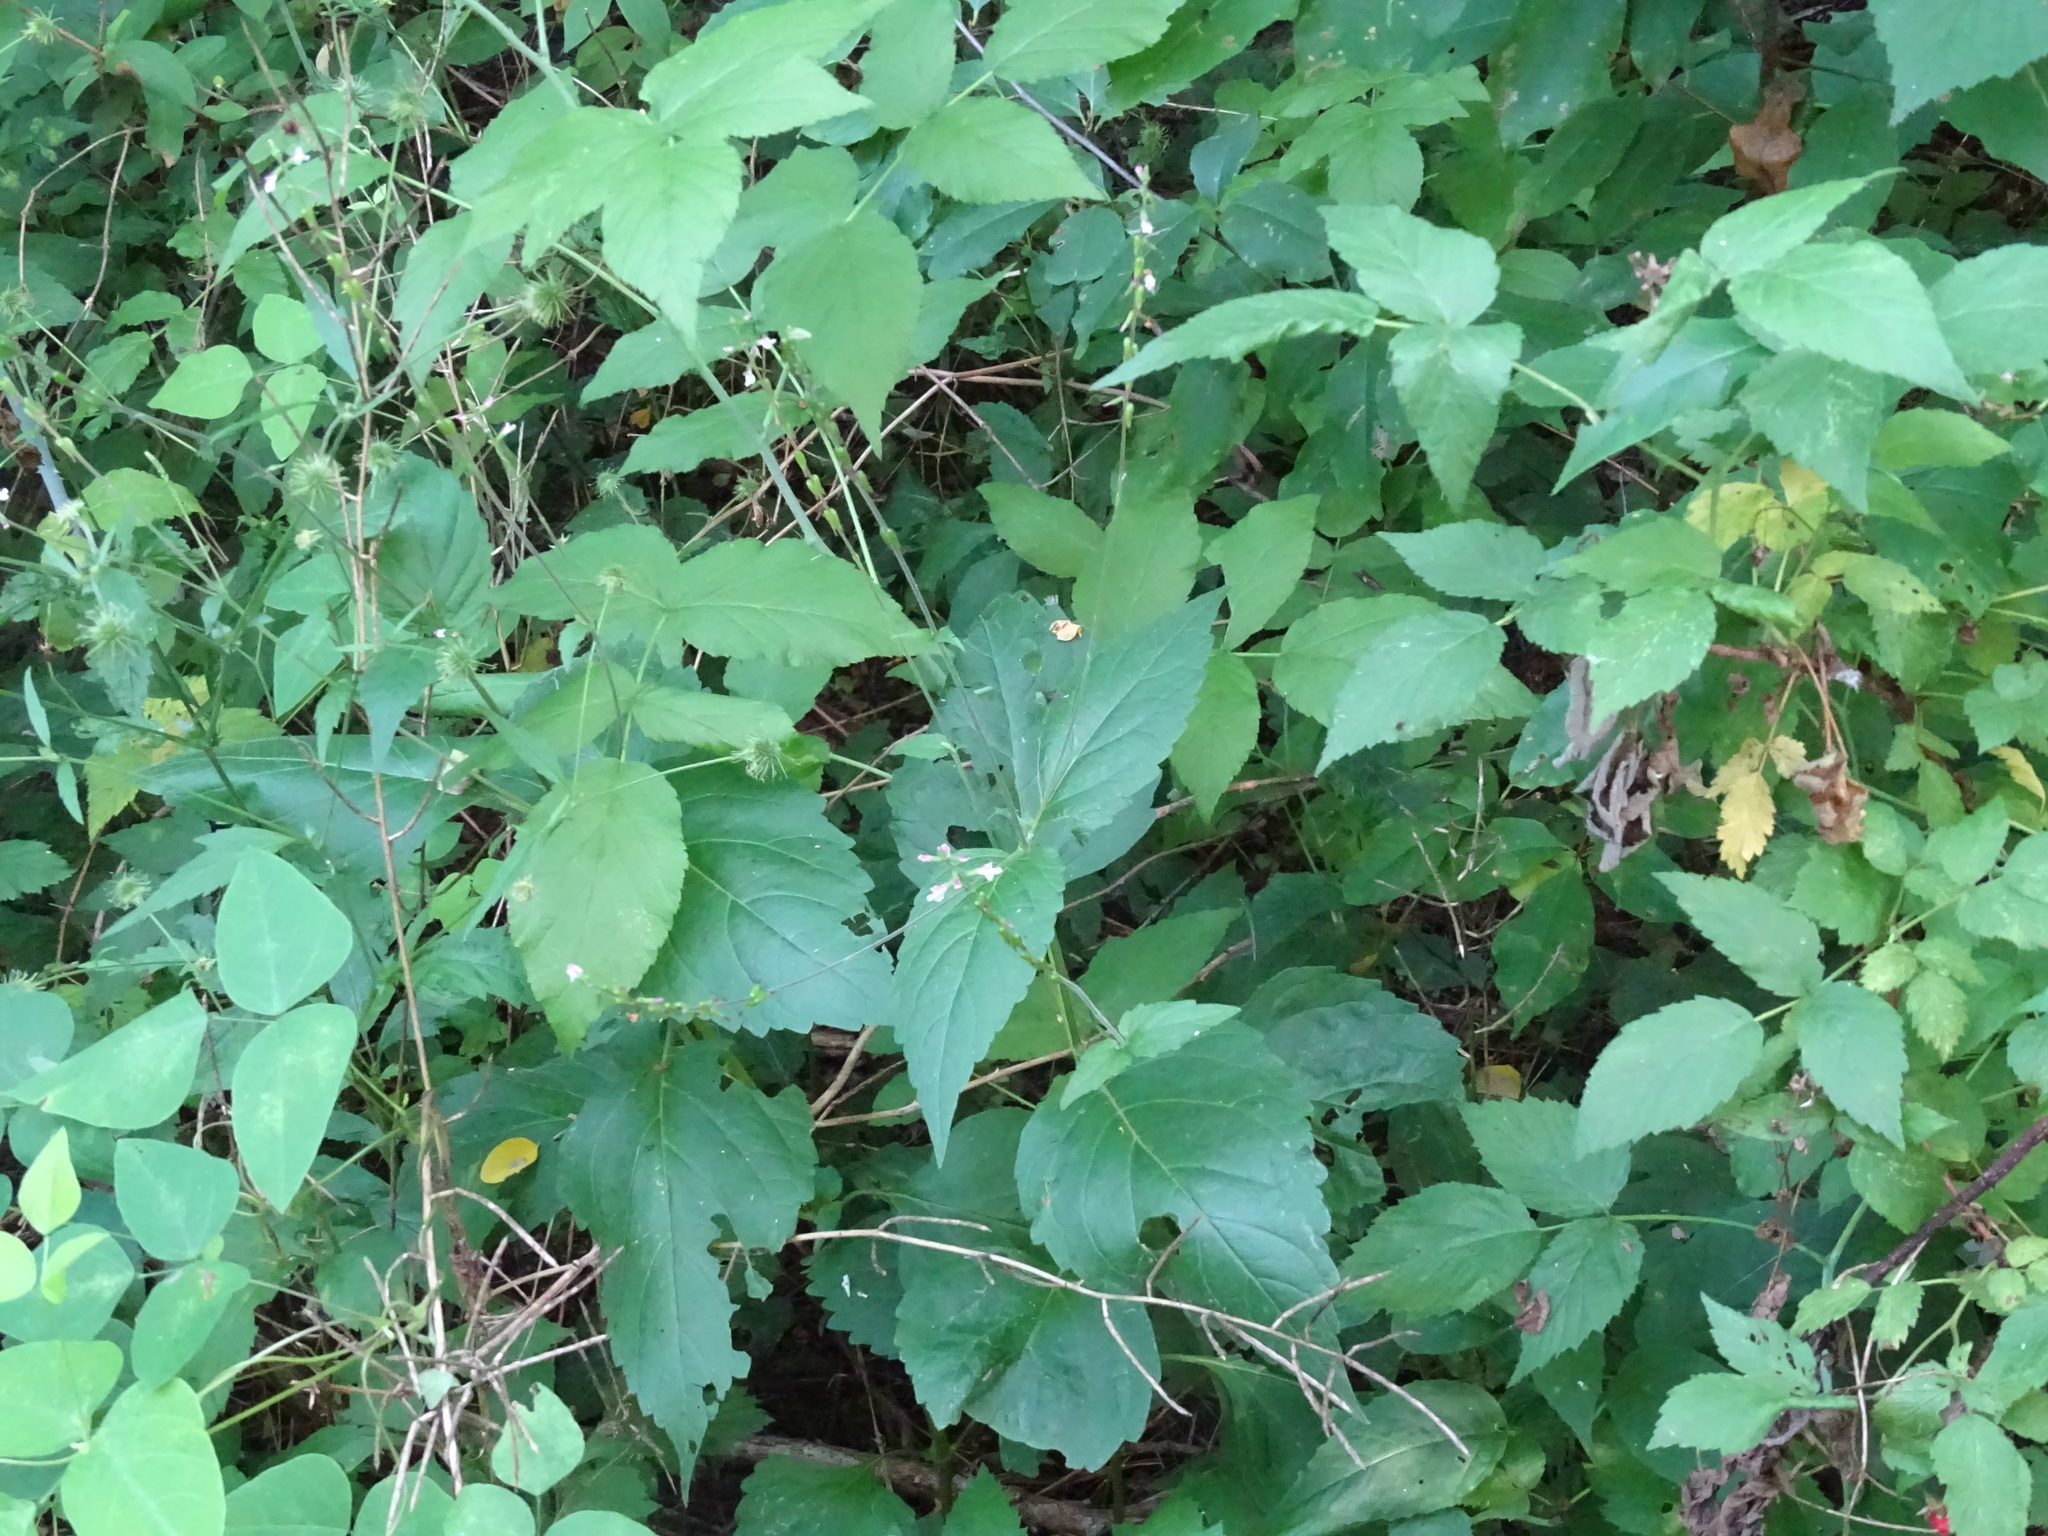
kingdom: Plantae
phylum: Tracheophyta
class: Magnoliopsida
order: Lamiales
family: Phrymaceae
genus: Phryma
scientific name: Phryma leptostachya
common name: American lopseed
